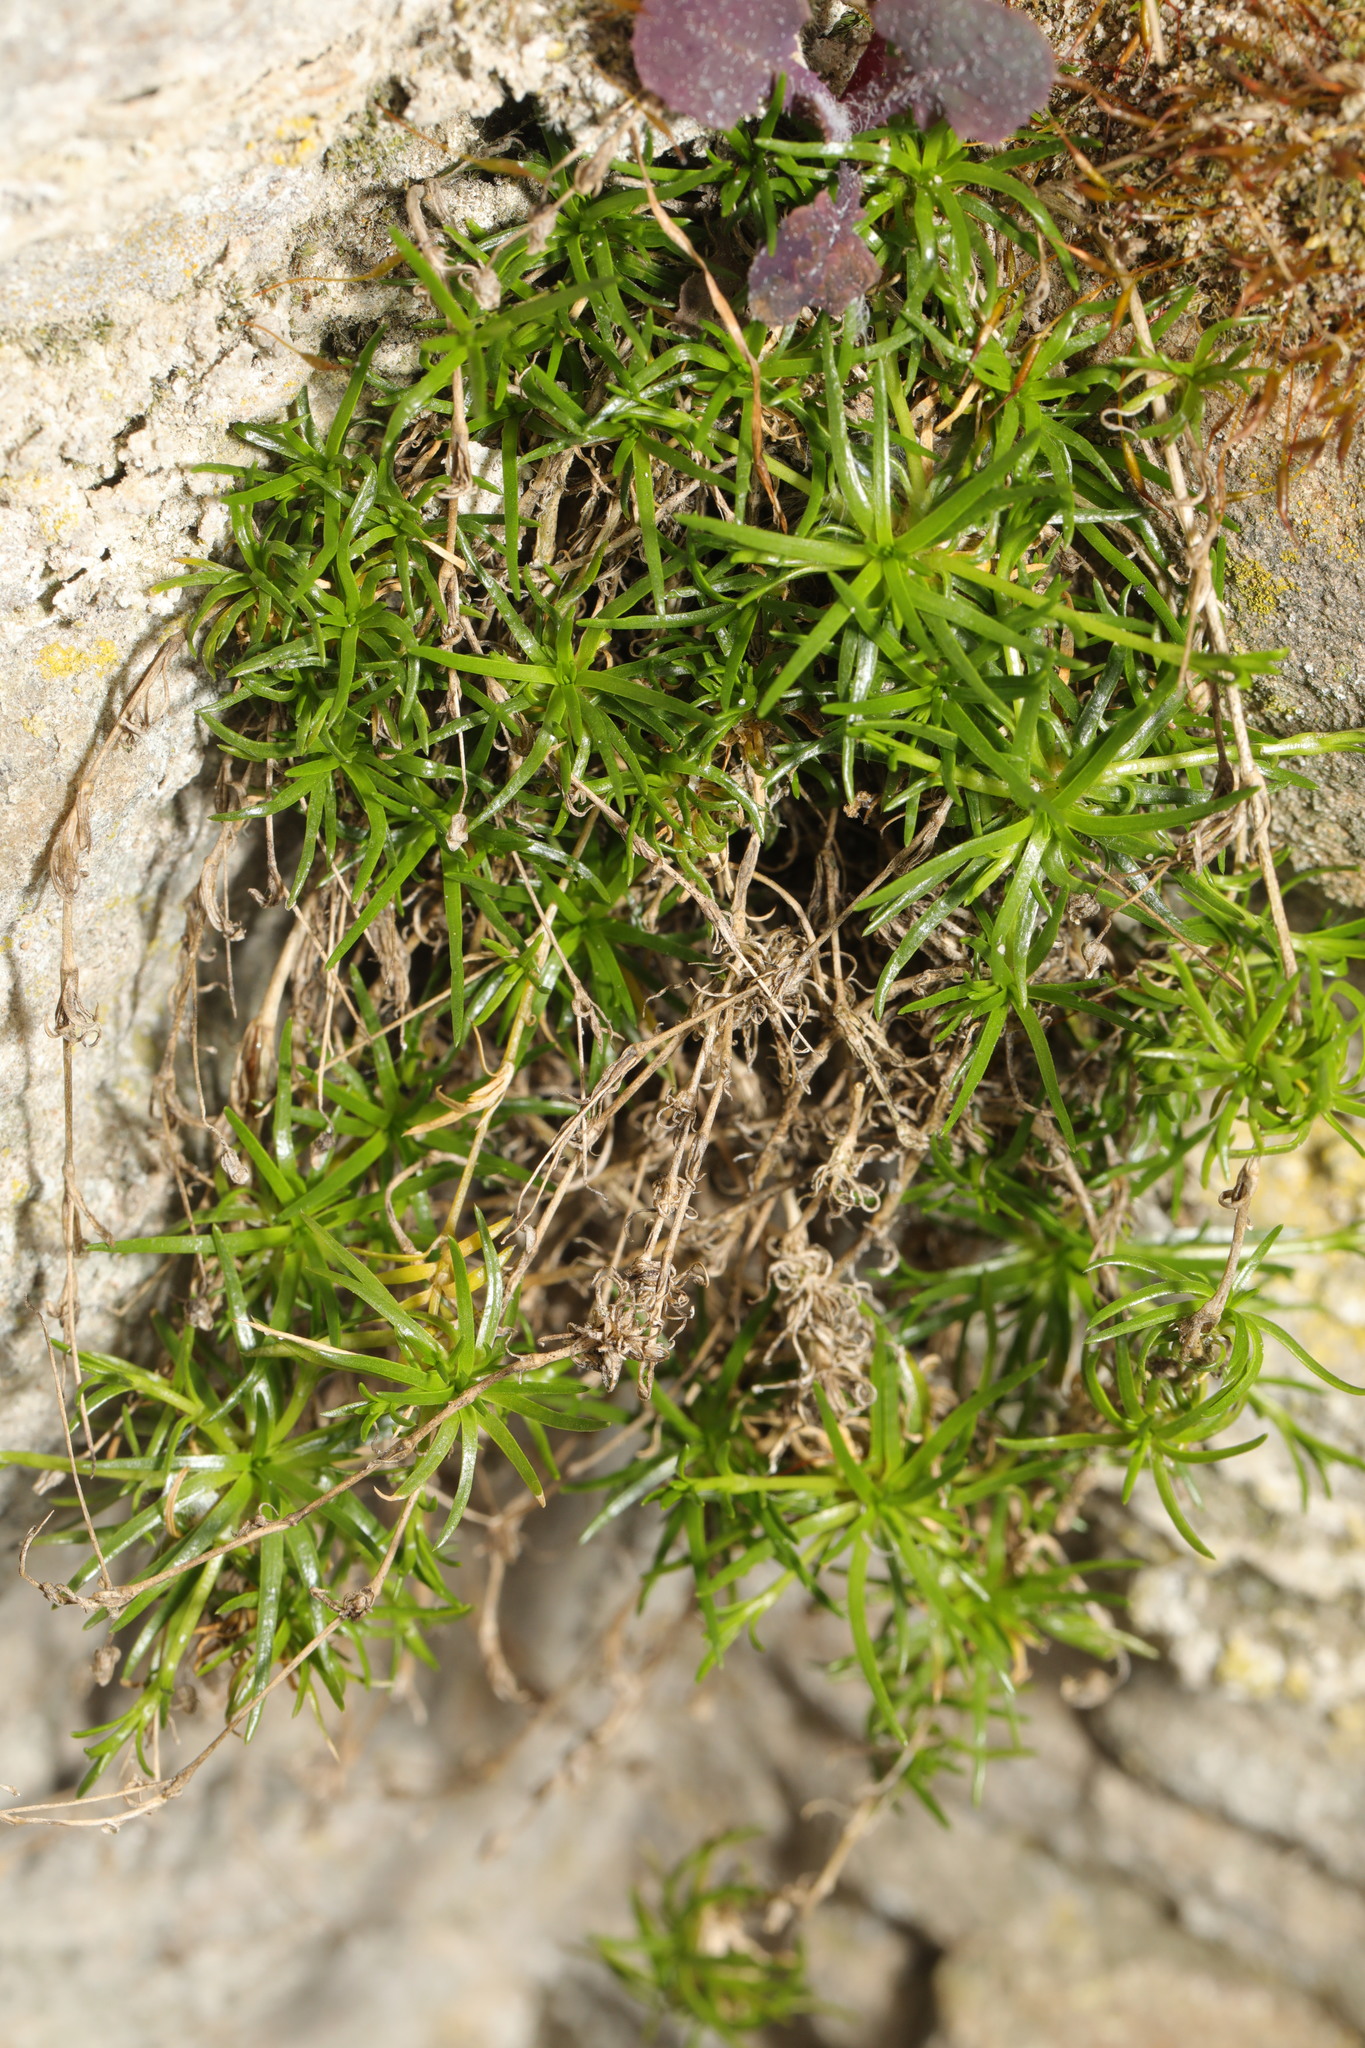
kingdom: Plantae
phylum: Tracheophyta
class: Magnoliopsida
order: Caryophyllales
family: Caryophyllaceae
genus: Sagina
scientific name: Sagina procumbens
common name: Procumbent pearlwort
